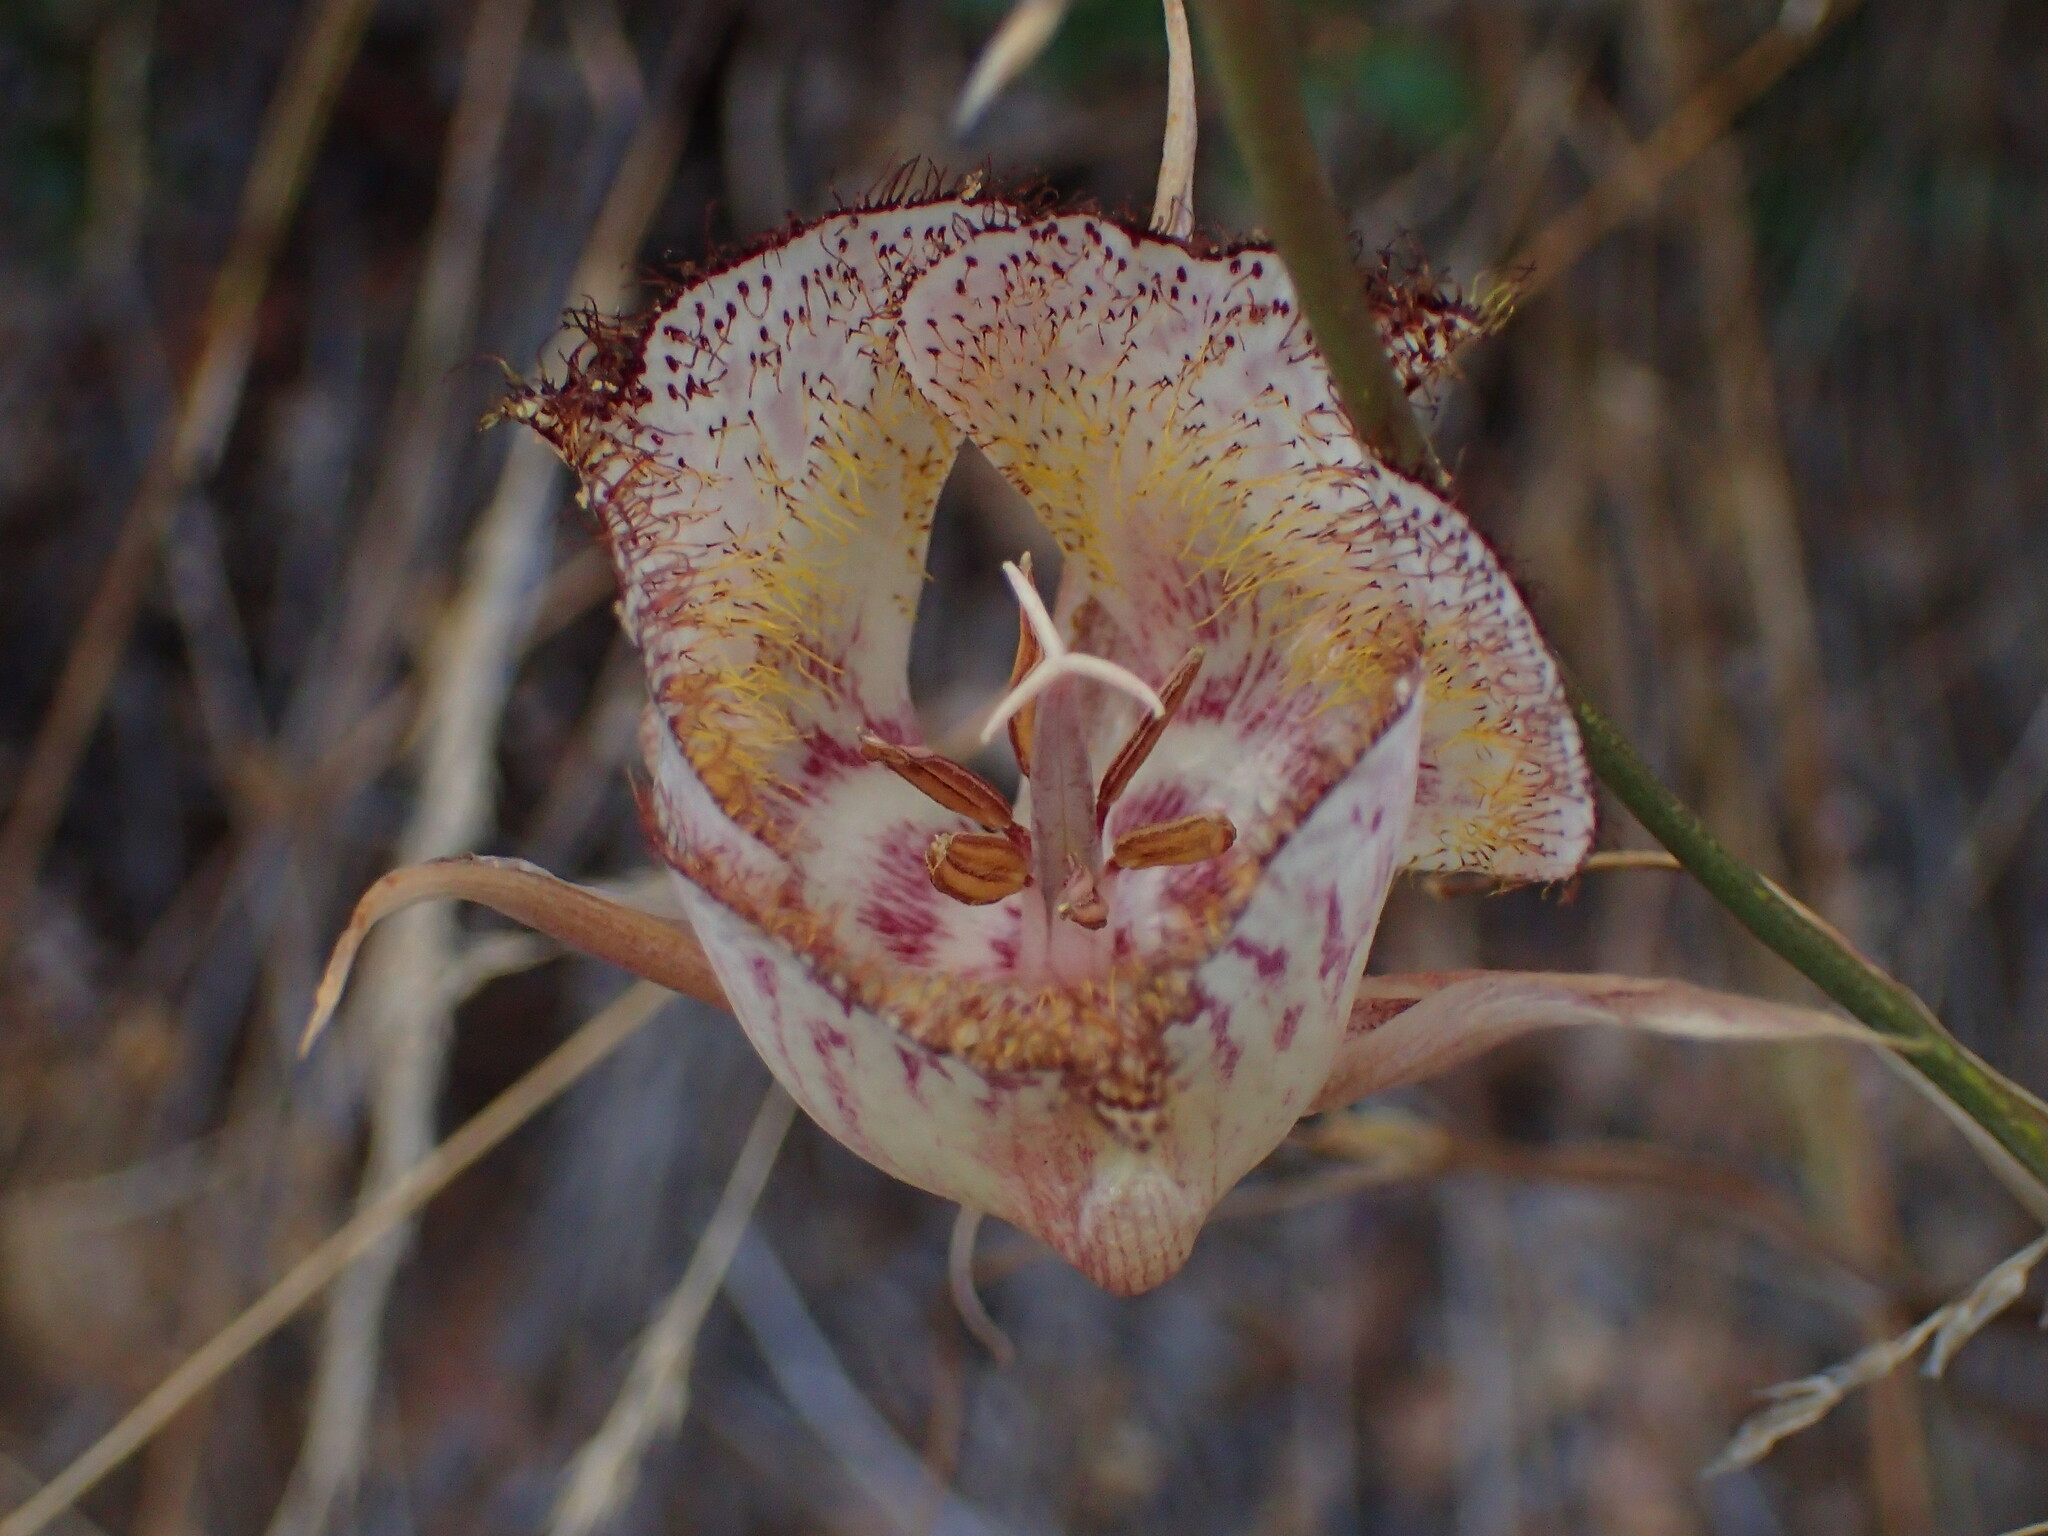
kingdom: Plantae
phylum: Tracheophyta
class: Liliopsida
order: Liliales
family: Liliaceae
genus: Calochortus
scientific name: Calochortus fimbriatus
